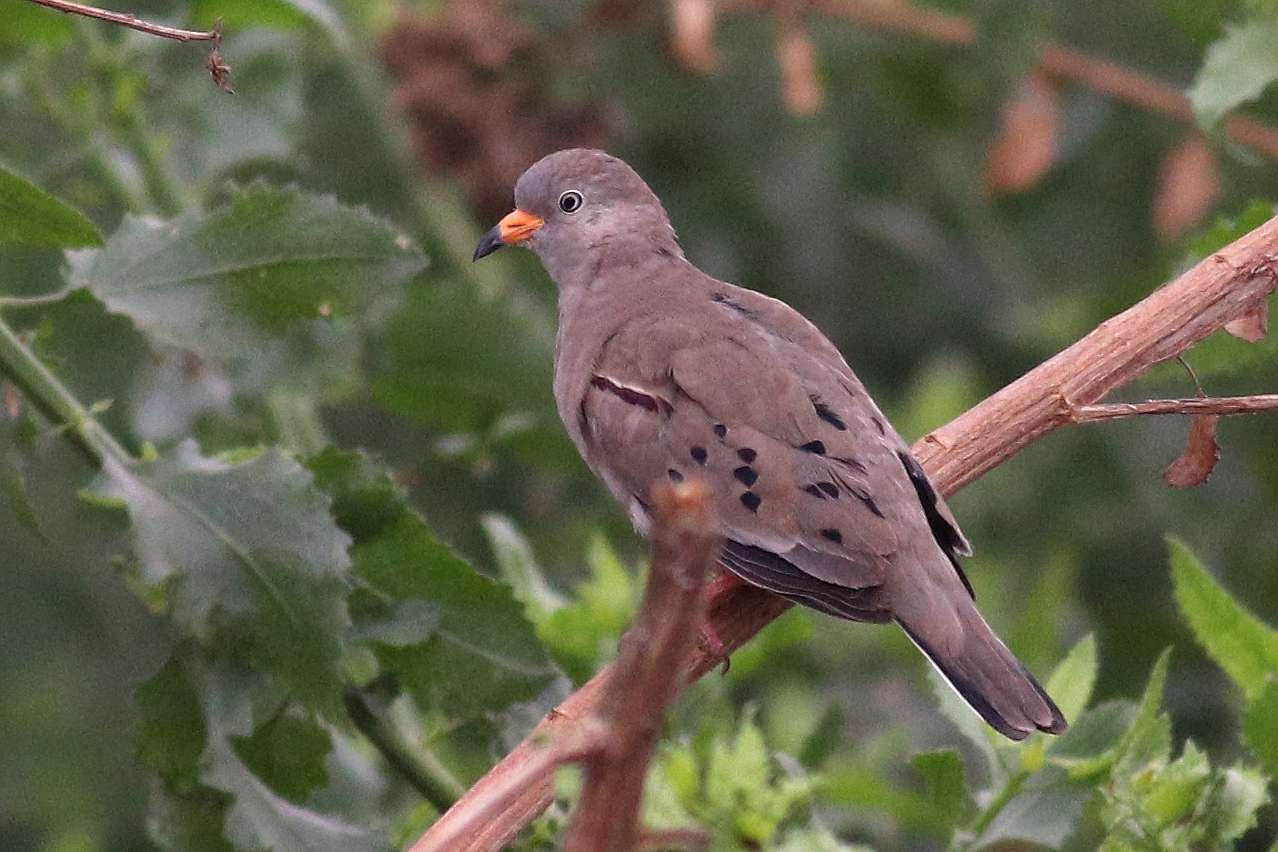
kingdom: Animalia
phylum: Chordata
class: Aves
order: Columbiformes
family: Columbidae
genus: Columbina
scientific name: Columbina cruziana
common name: Croaking ground dove
